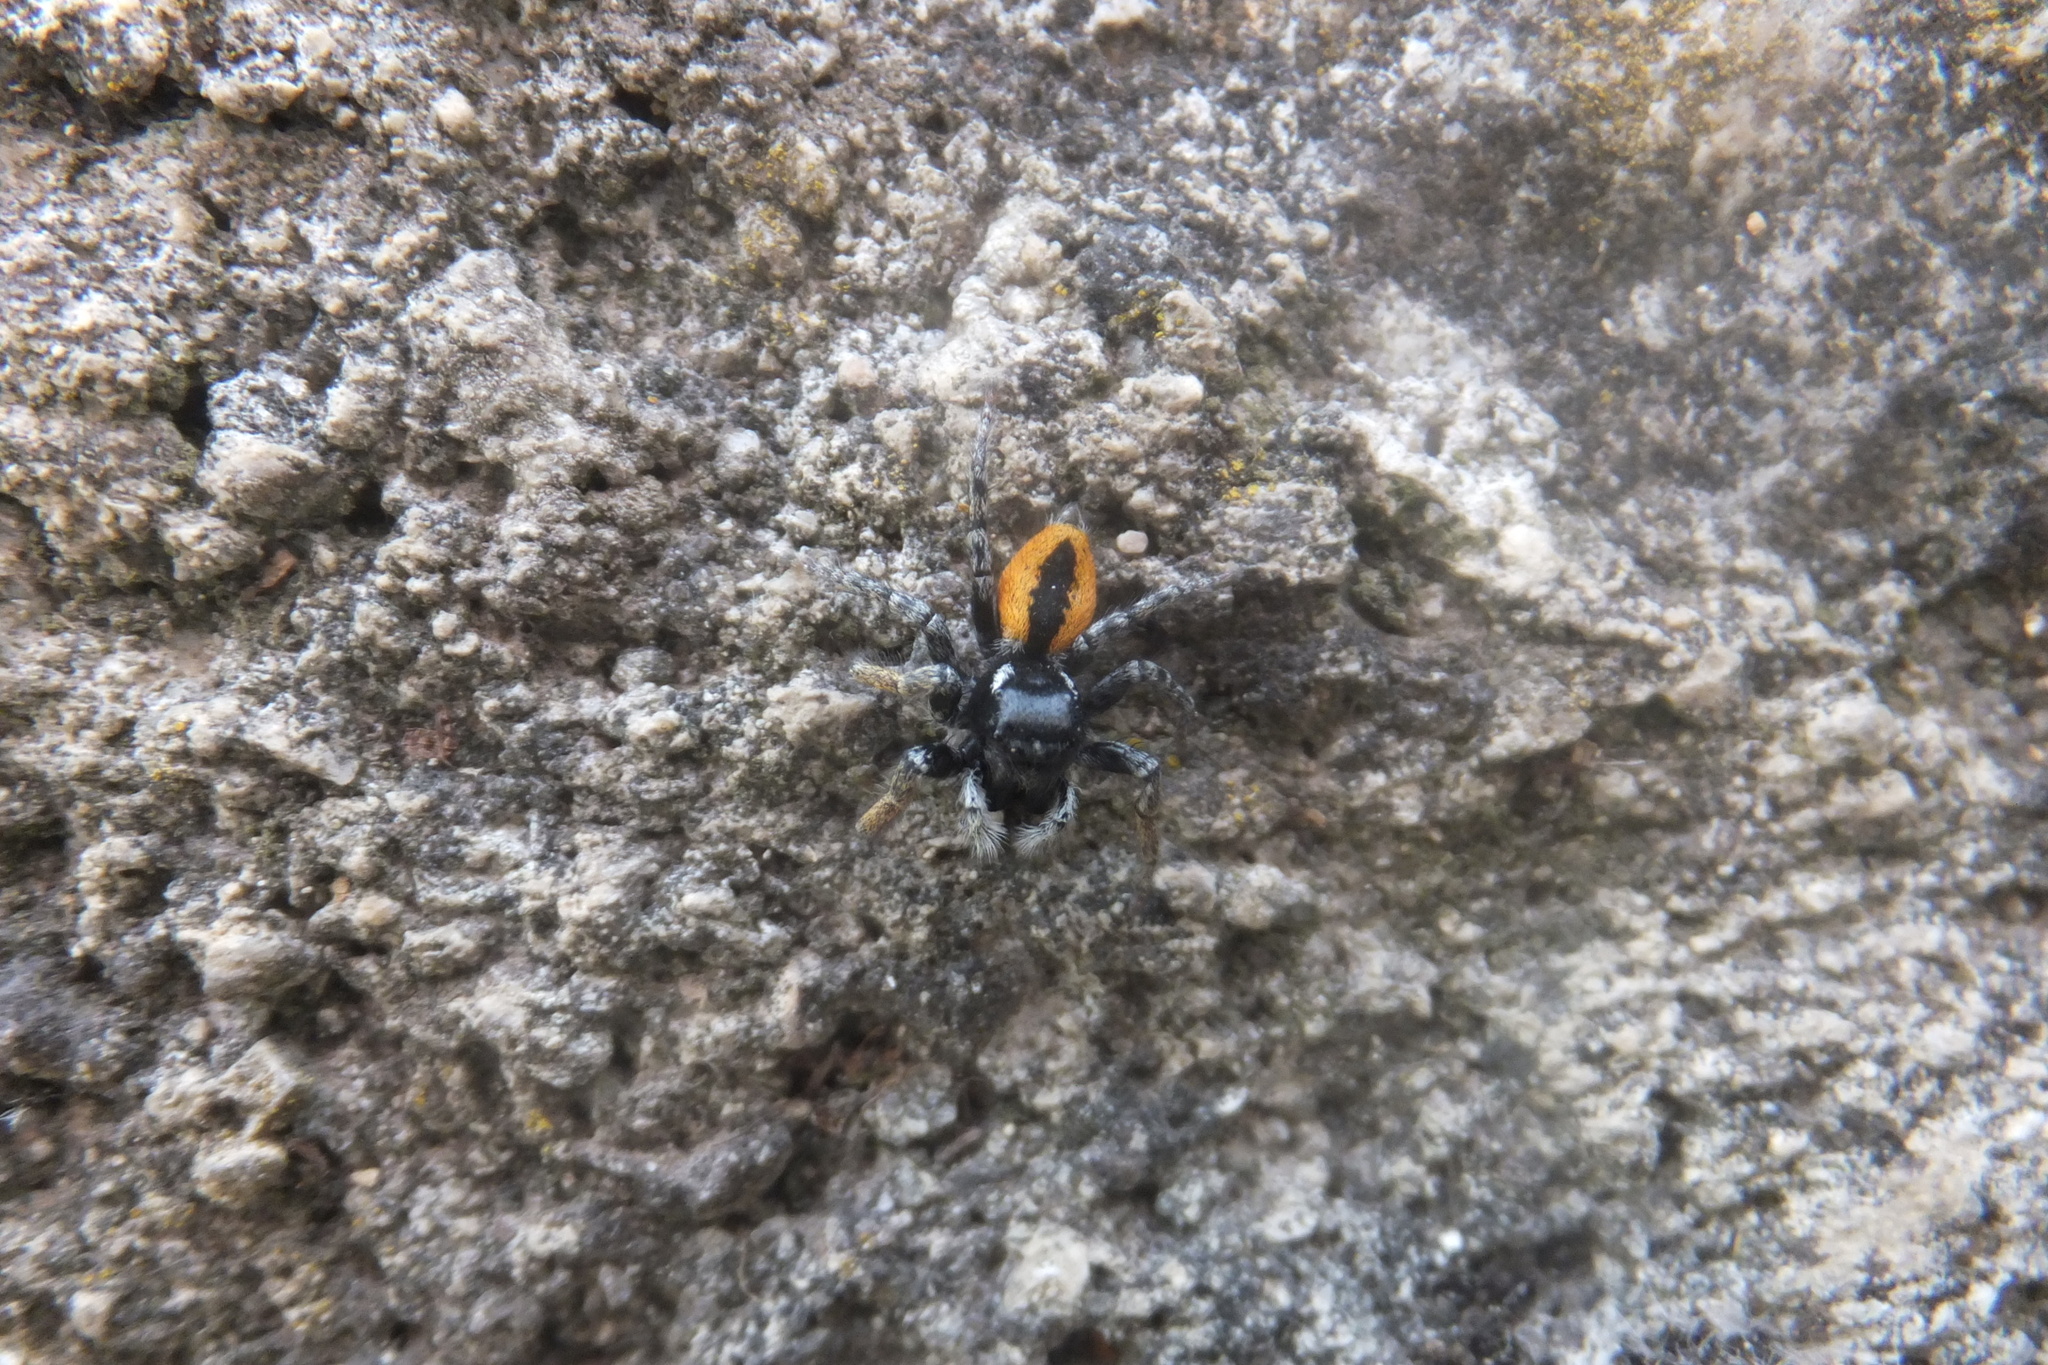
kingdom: Animalia
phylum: Arthropoda
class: Arachnida
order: Araneae
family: Salticidae
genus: Philaeus
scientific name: Philaeus chrysops
